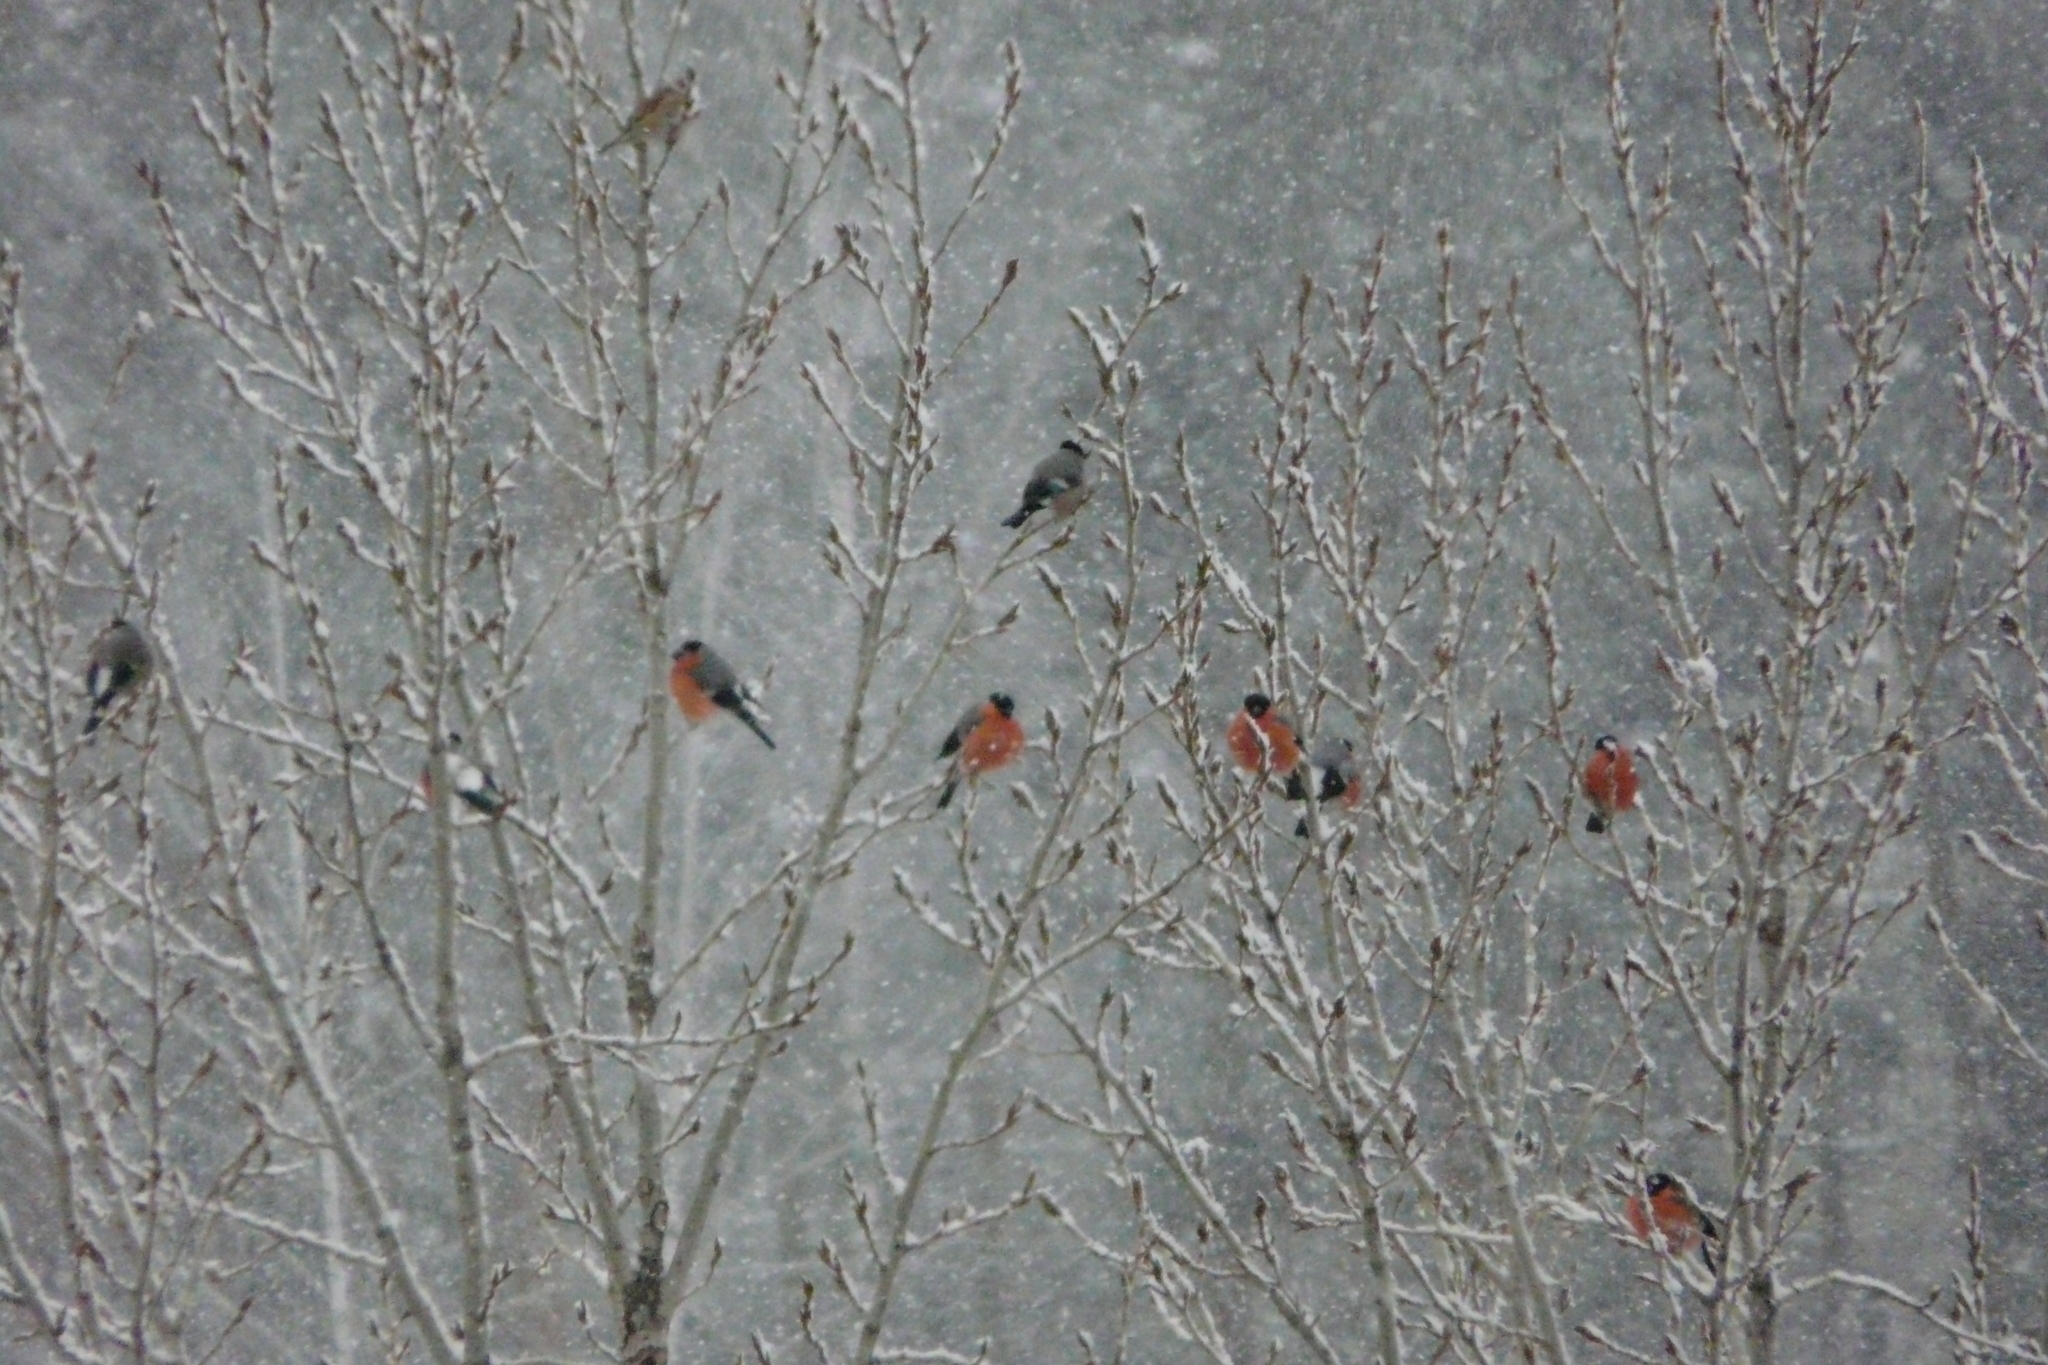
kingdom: Animalia
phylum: Chordata
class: Aves
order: Passeriformes
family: Fringillidae
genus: Pyrrhula
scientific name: Pyrrhula pyrrhula
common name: Eurasian bullfinch
